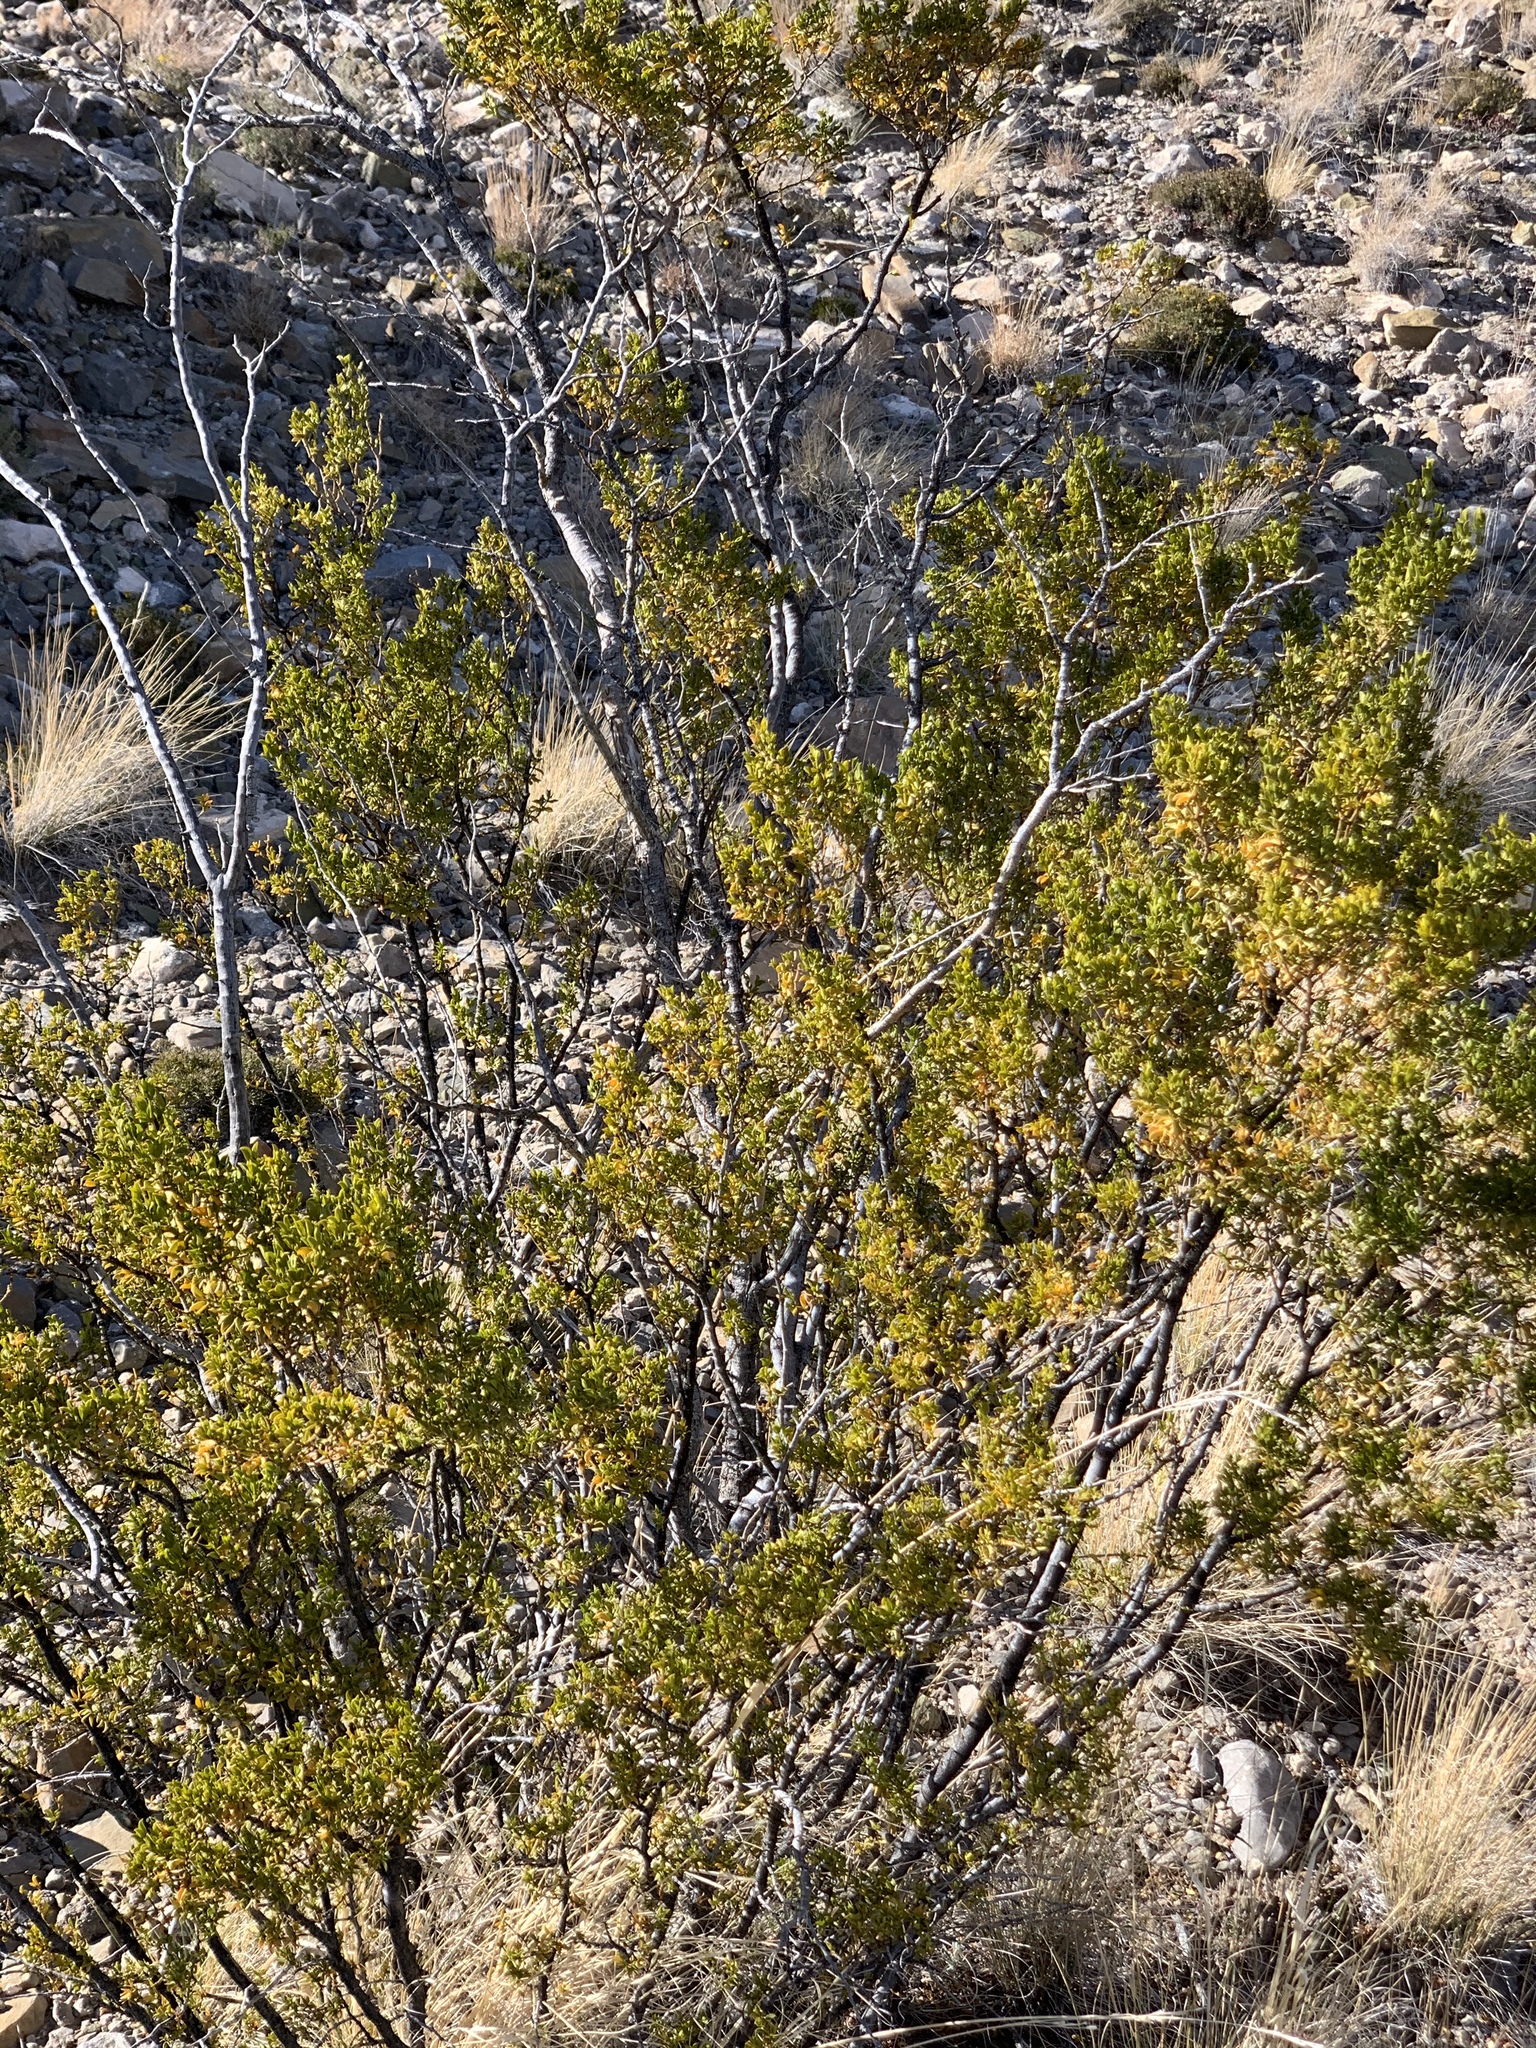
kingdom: Plantae
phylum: Tracheophyta
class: Magnoliopsida
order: Zygophyllales
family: Zygophyllaceae
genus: Larrea
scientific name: Larrea tridentata
